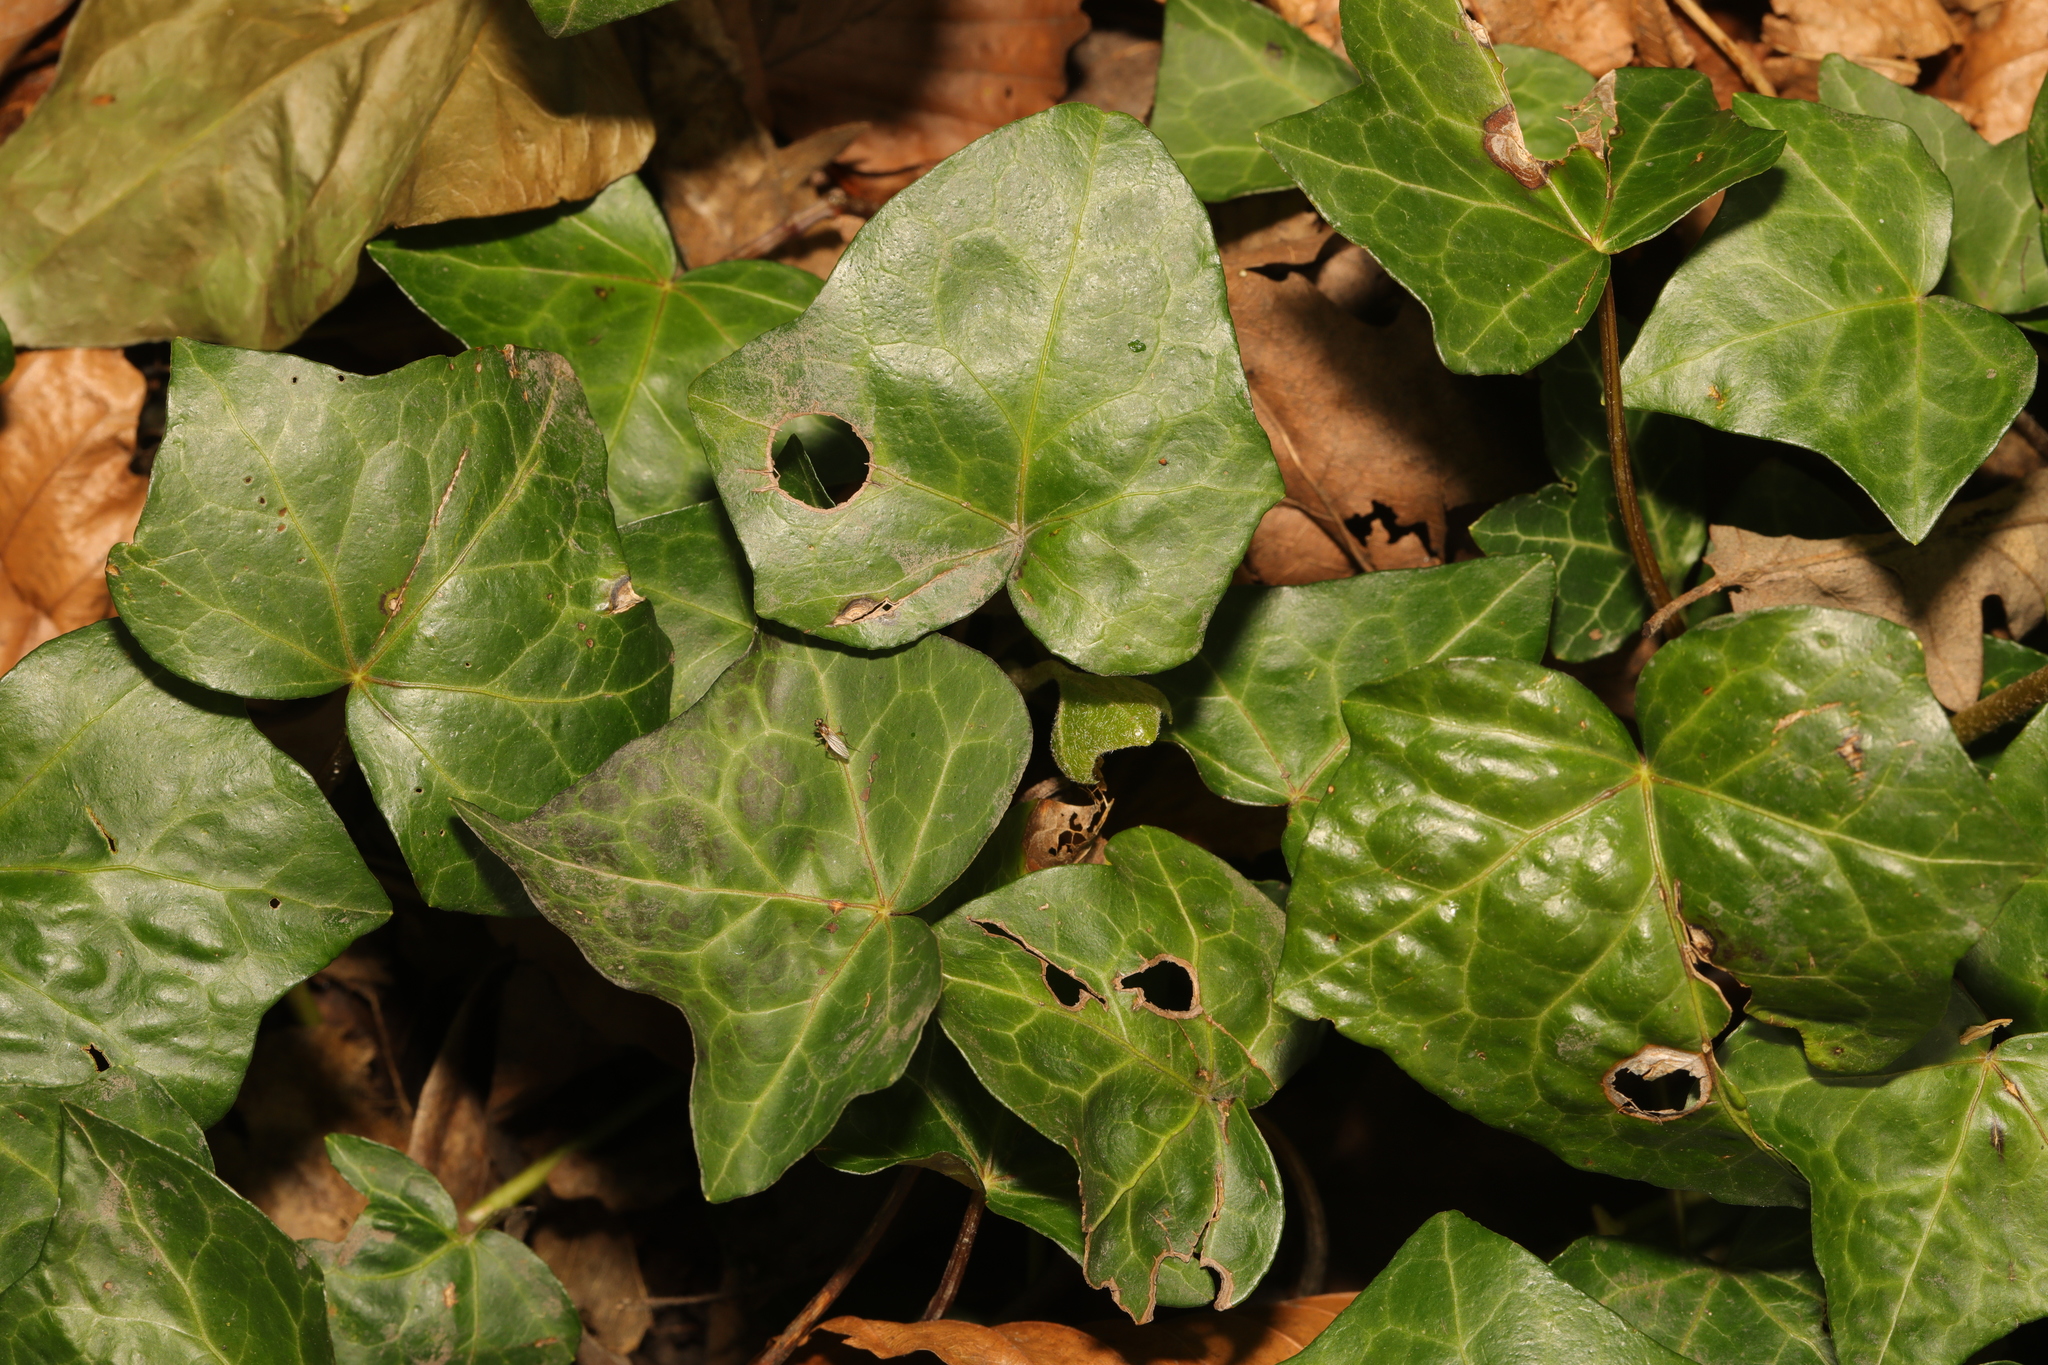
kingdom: Plantae
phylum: Tracheophyta
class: Magnoliopsida
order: Apiales
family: Araliaceae
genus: Hedera
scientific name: Hedera helix
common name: Ivy
